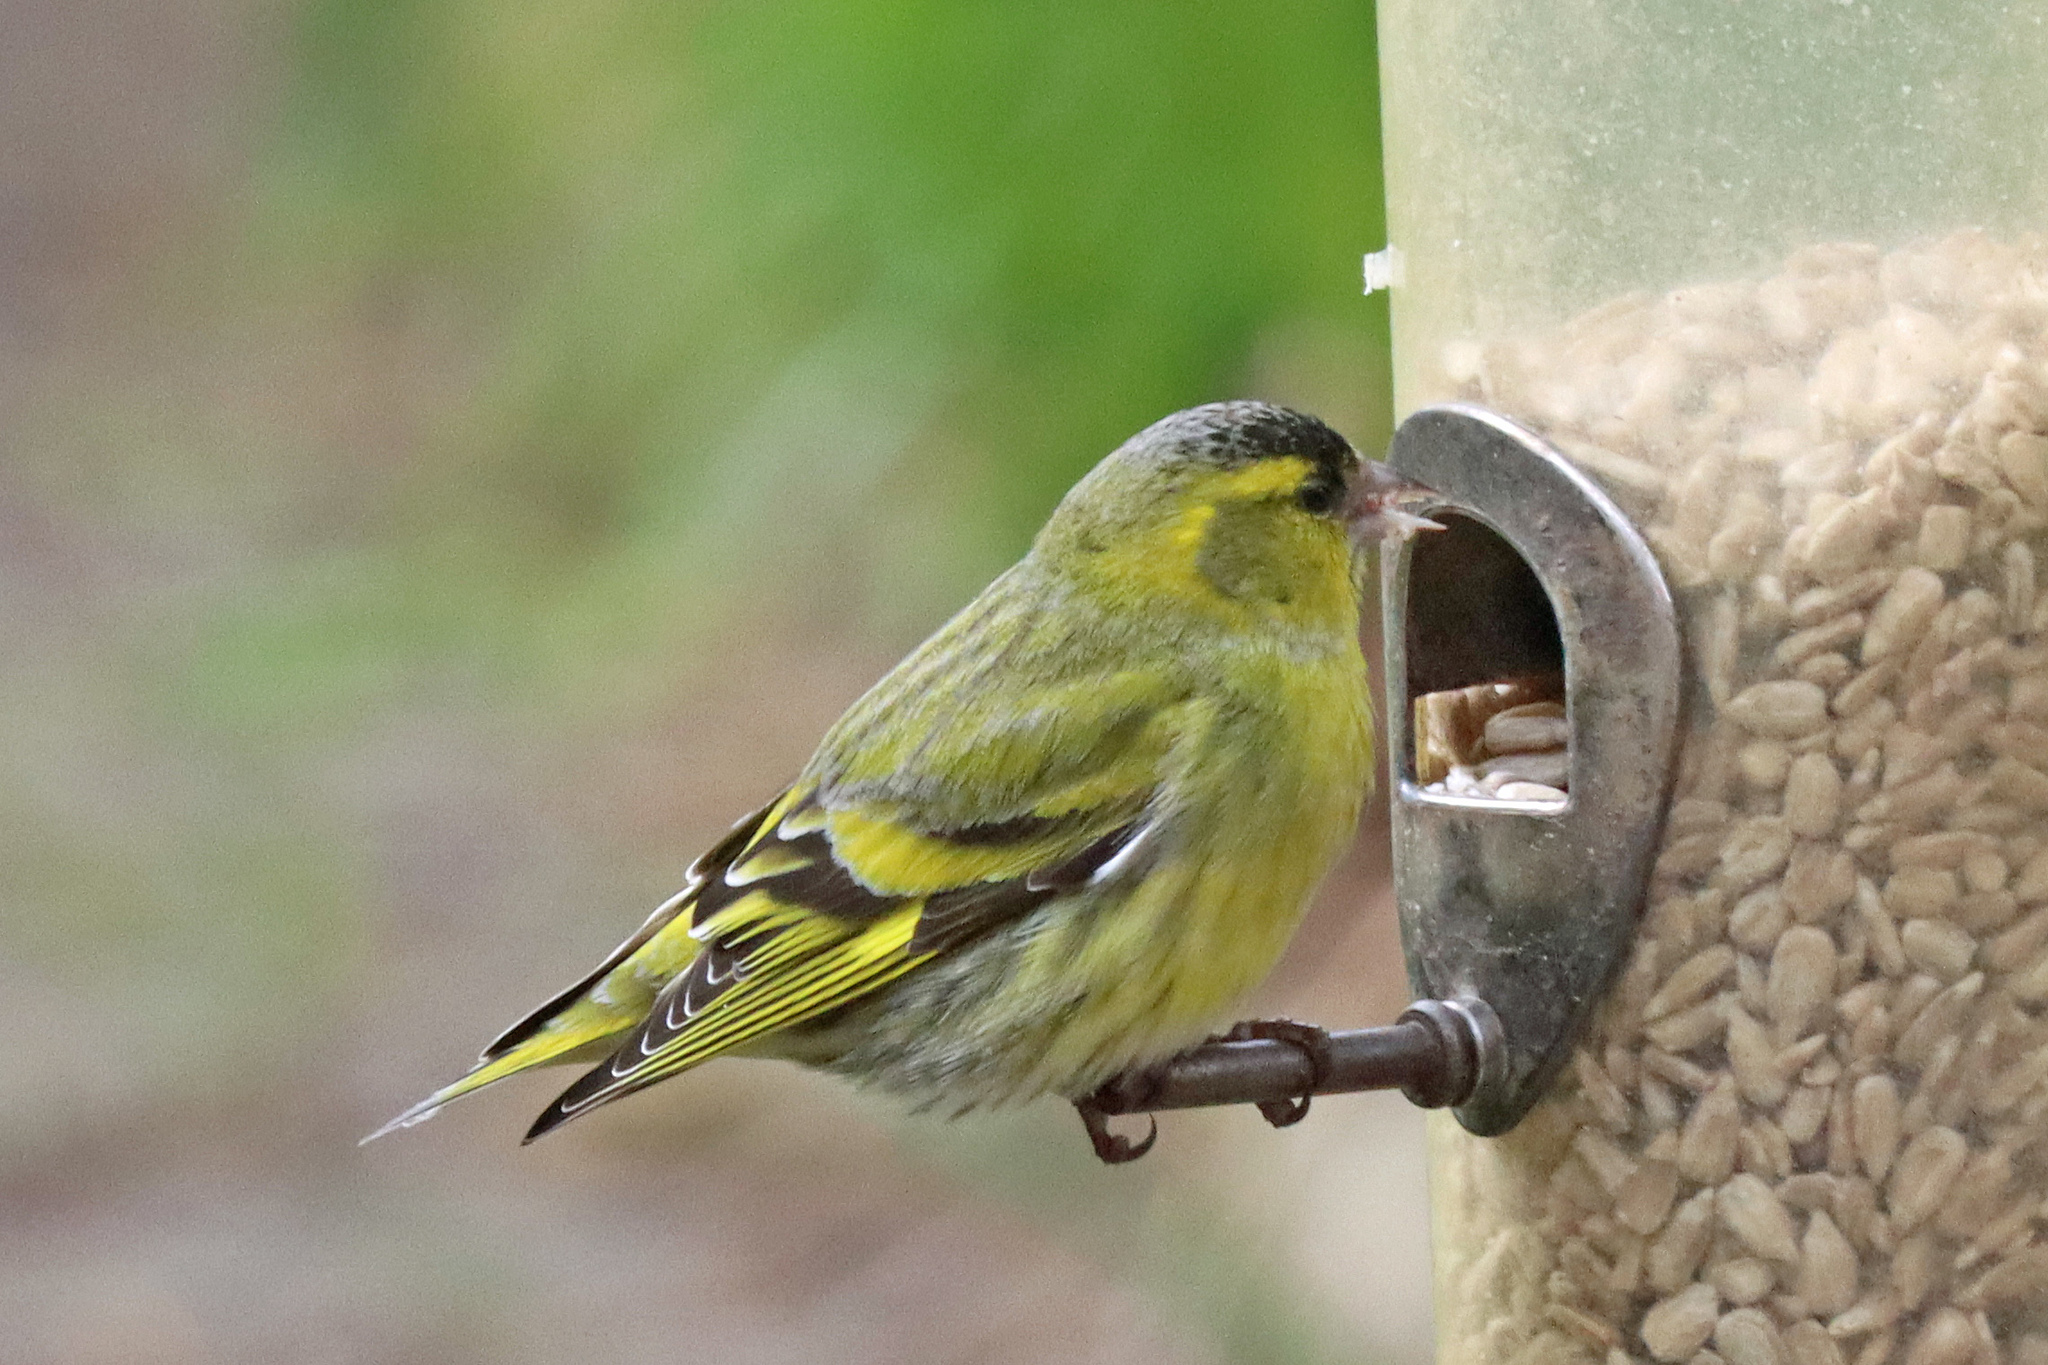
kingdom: Animalia
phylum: Chordata
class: Aves
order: Passeriformes
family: Fringillidae
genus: Spinus
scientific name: Spinus spinus
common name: Eurasian siskin
